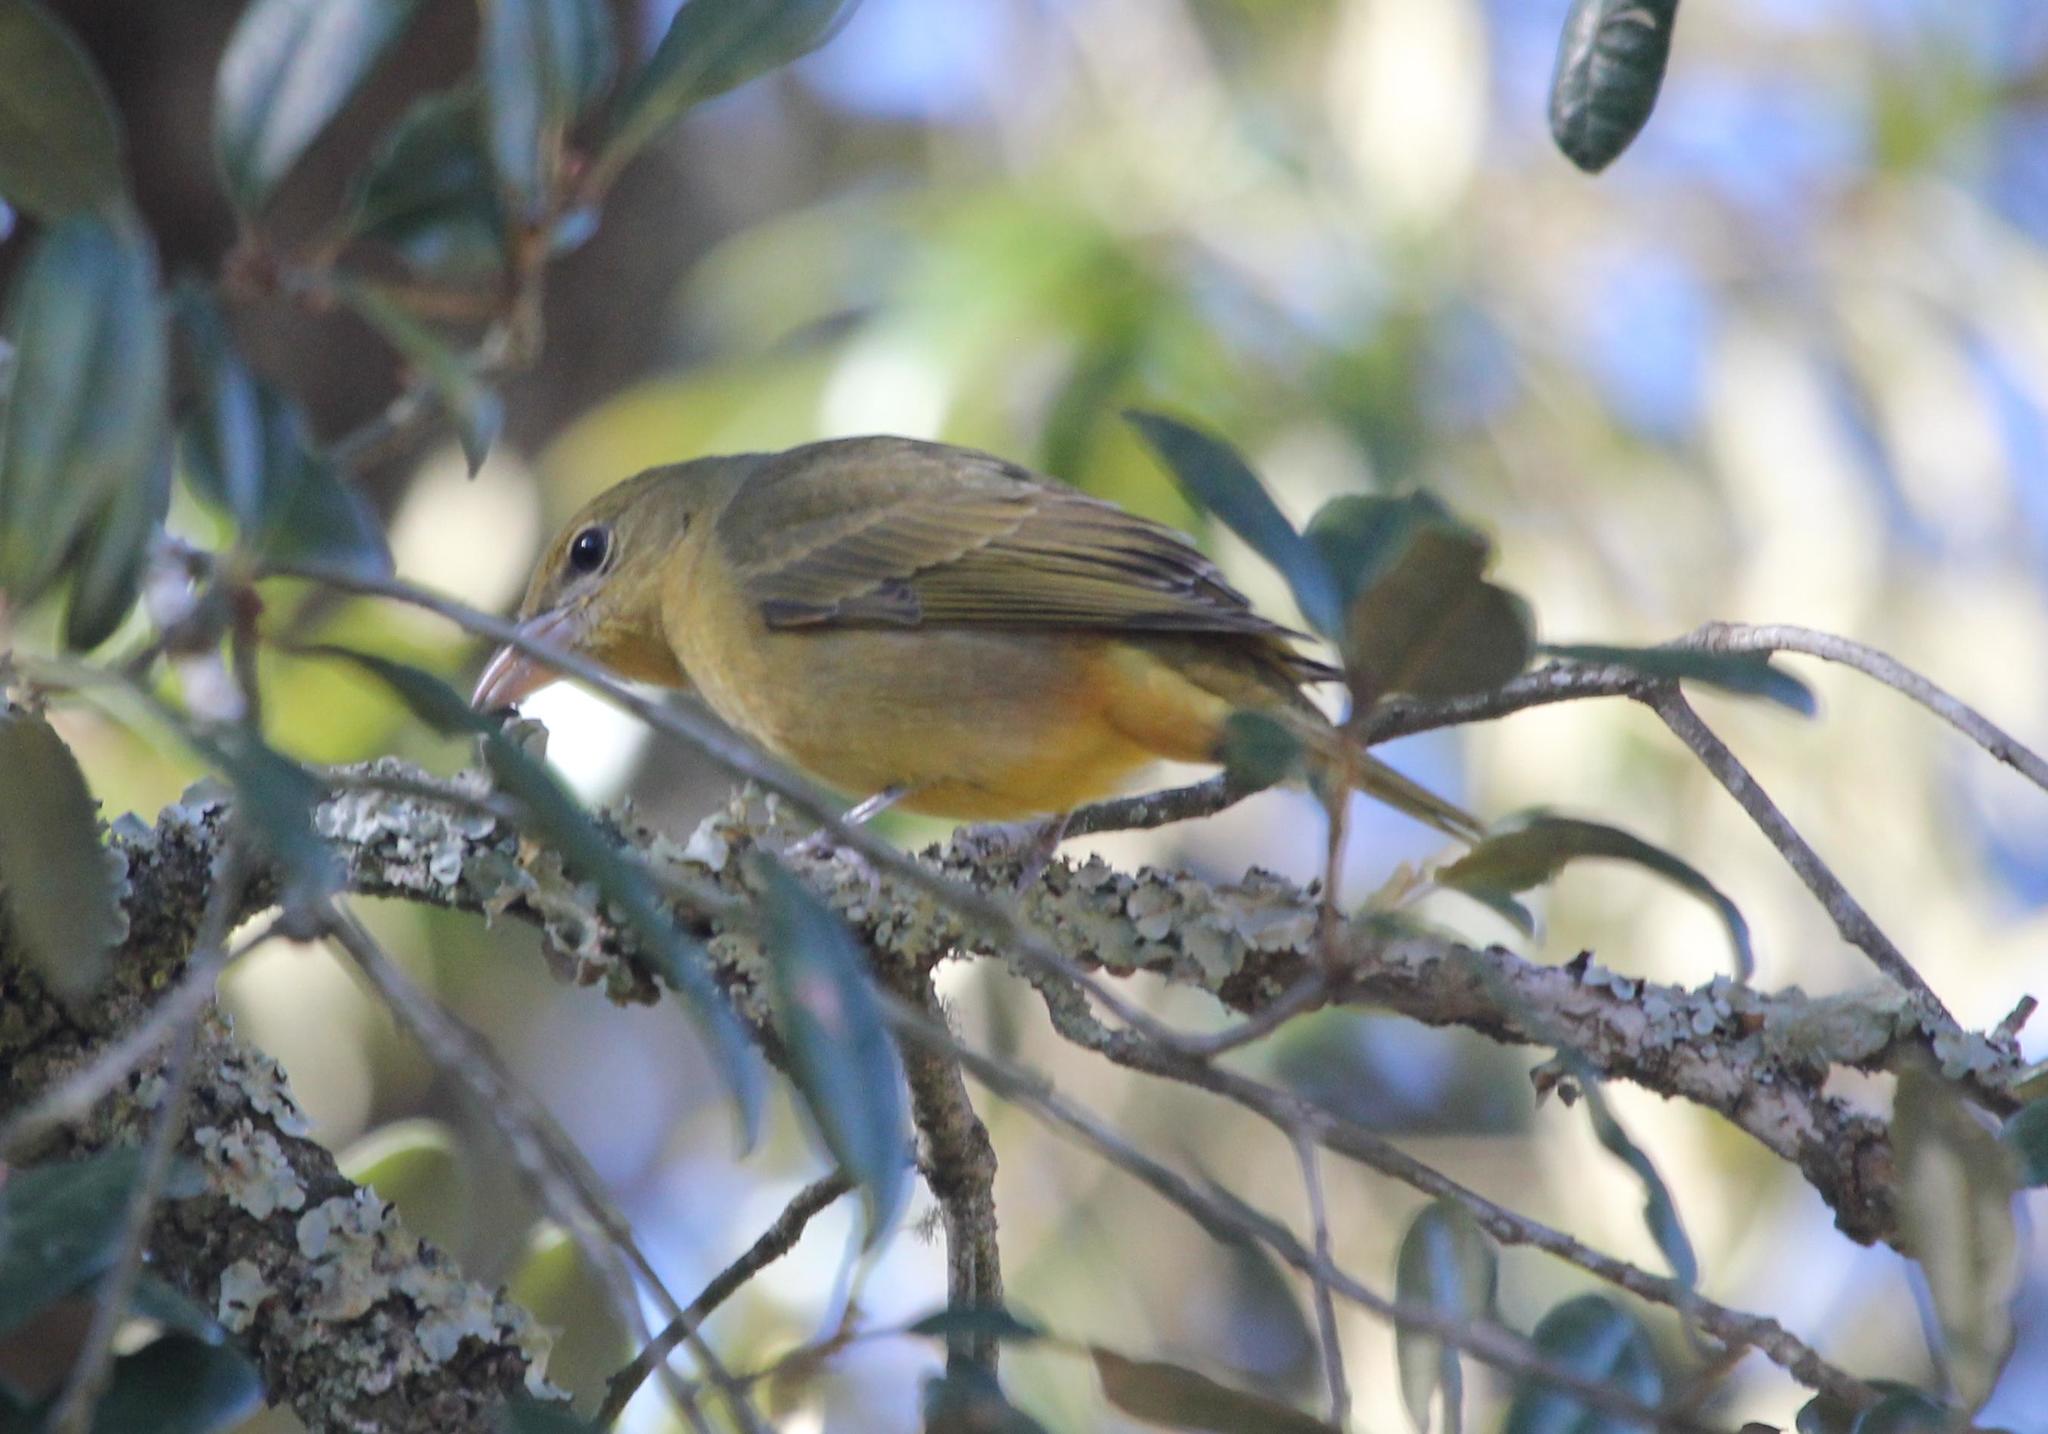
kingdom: Animalia
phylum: Chordata
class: Aves
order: Passeriformes
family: Cardinalidae
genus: Piranga
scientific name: Piranga rubra
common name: Summer tanager
